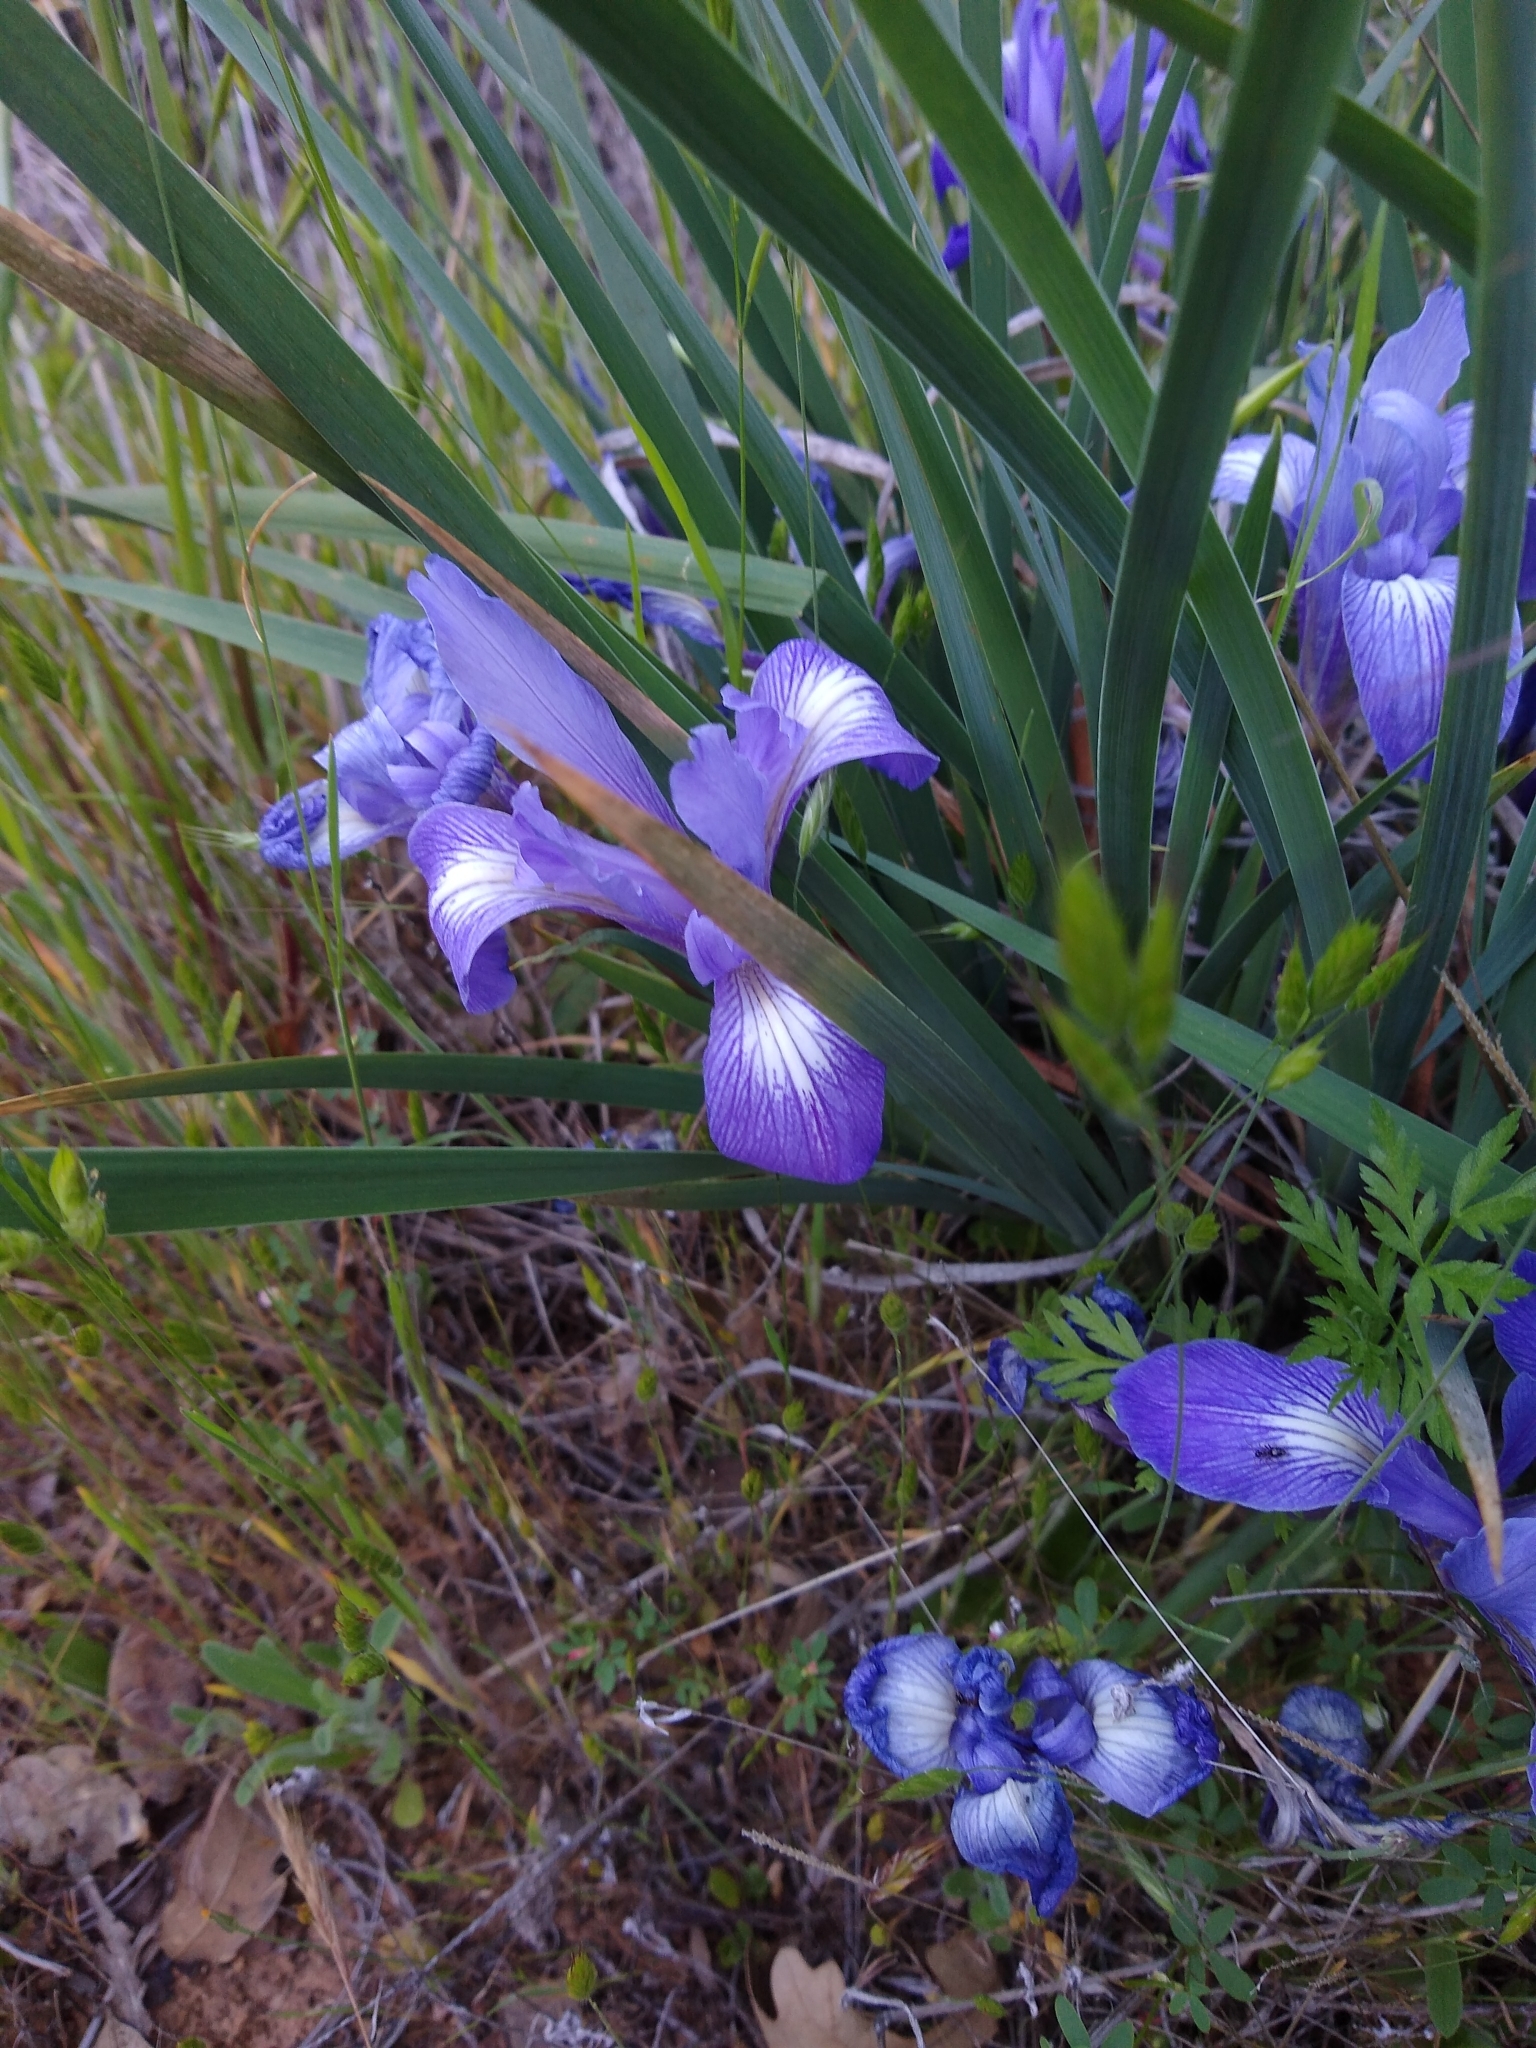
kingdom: Plantae
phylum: Tracheophyta
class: Liliopsida
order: Asparagales
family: Iridaceae
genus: Iris
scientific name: Iris macrosiphon
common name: Ground iris
